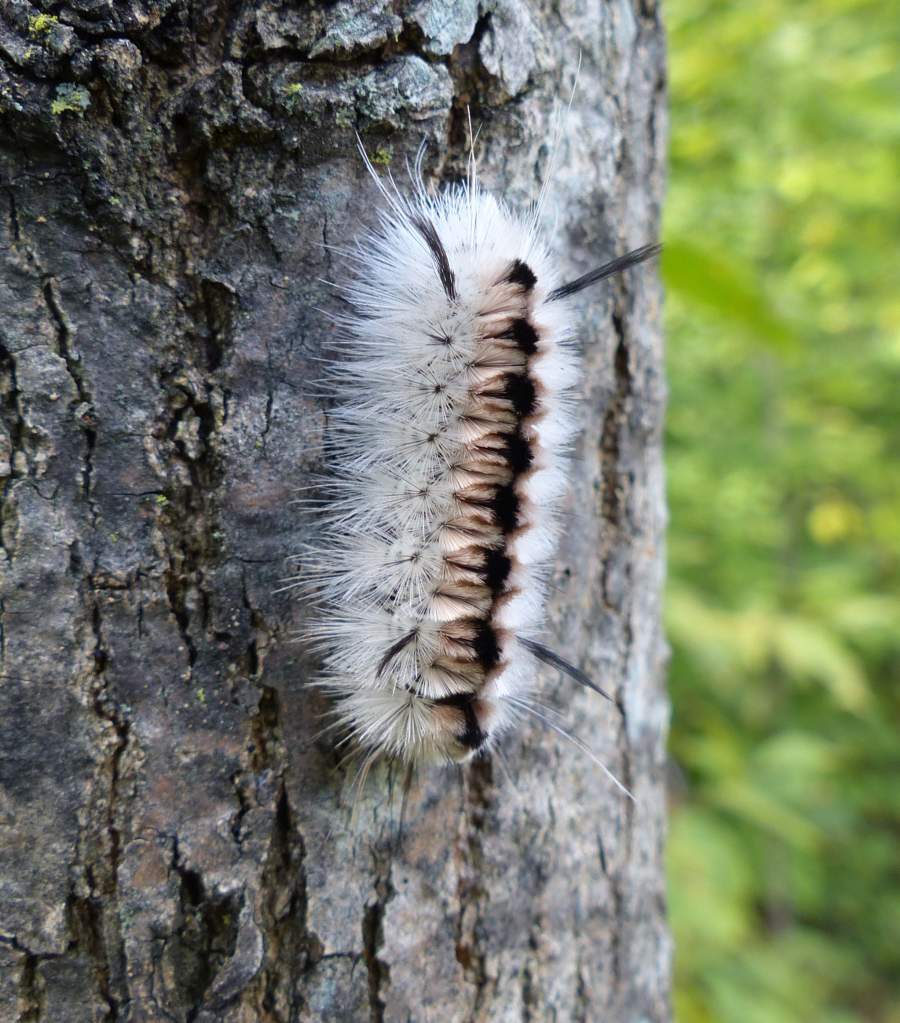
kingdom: Animalia
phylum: Arthropoda
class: Insecta
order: Lepidoptera
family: Erebidae
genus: Lophocampa
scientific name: Lophocampa caryae
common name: Hickory tussock moth
